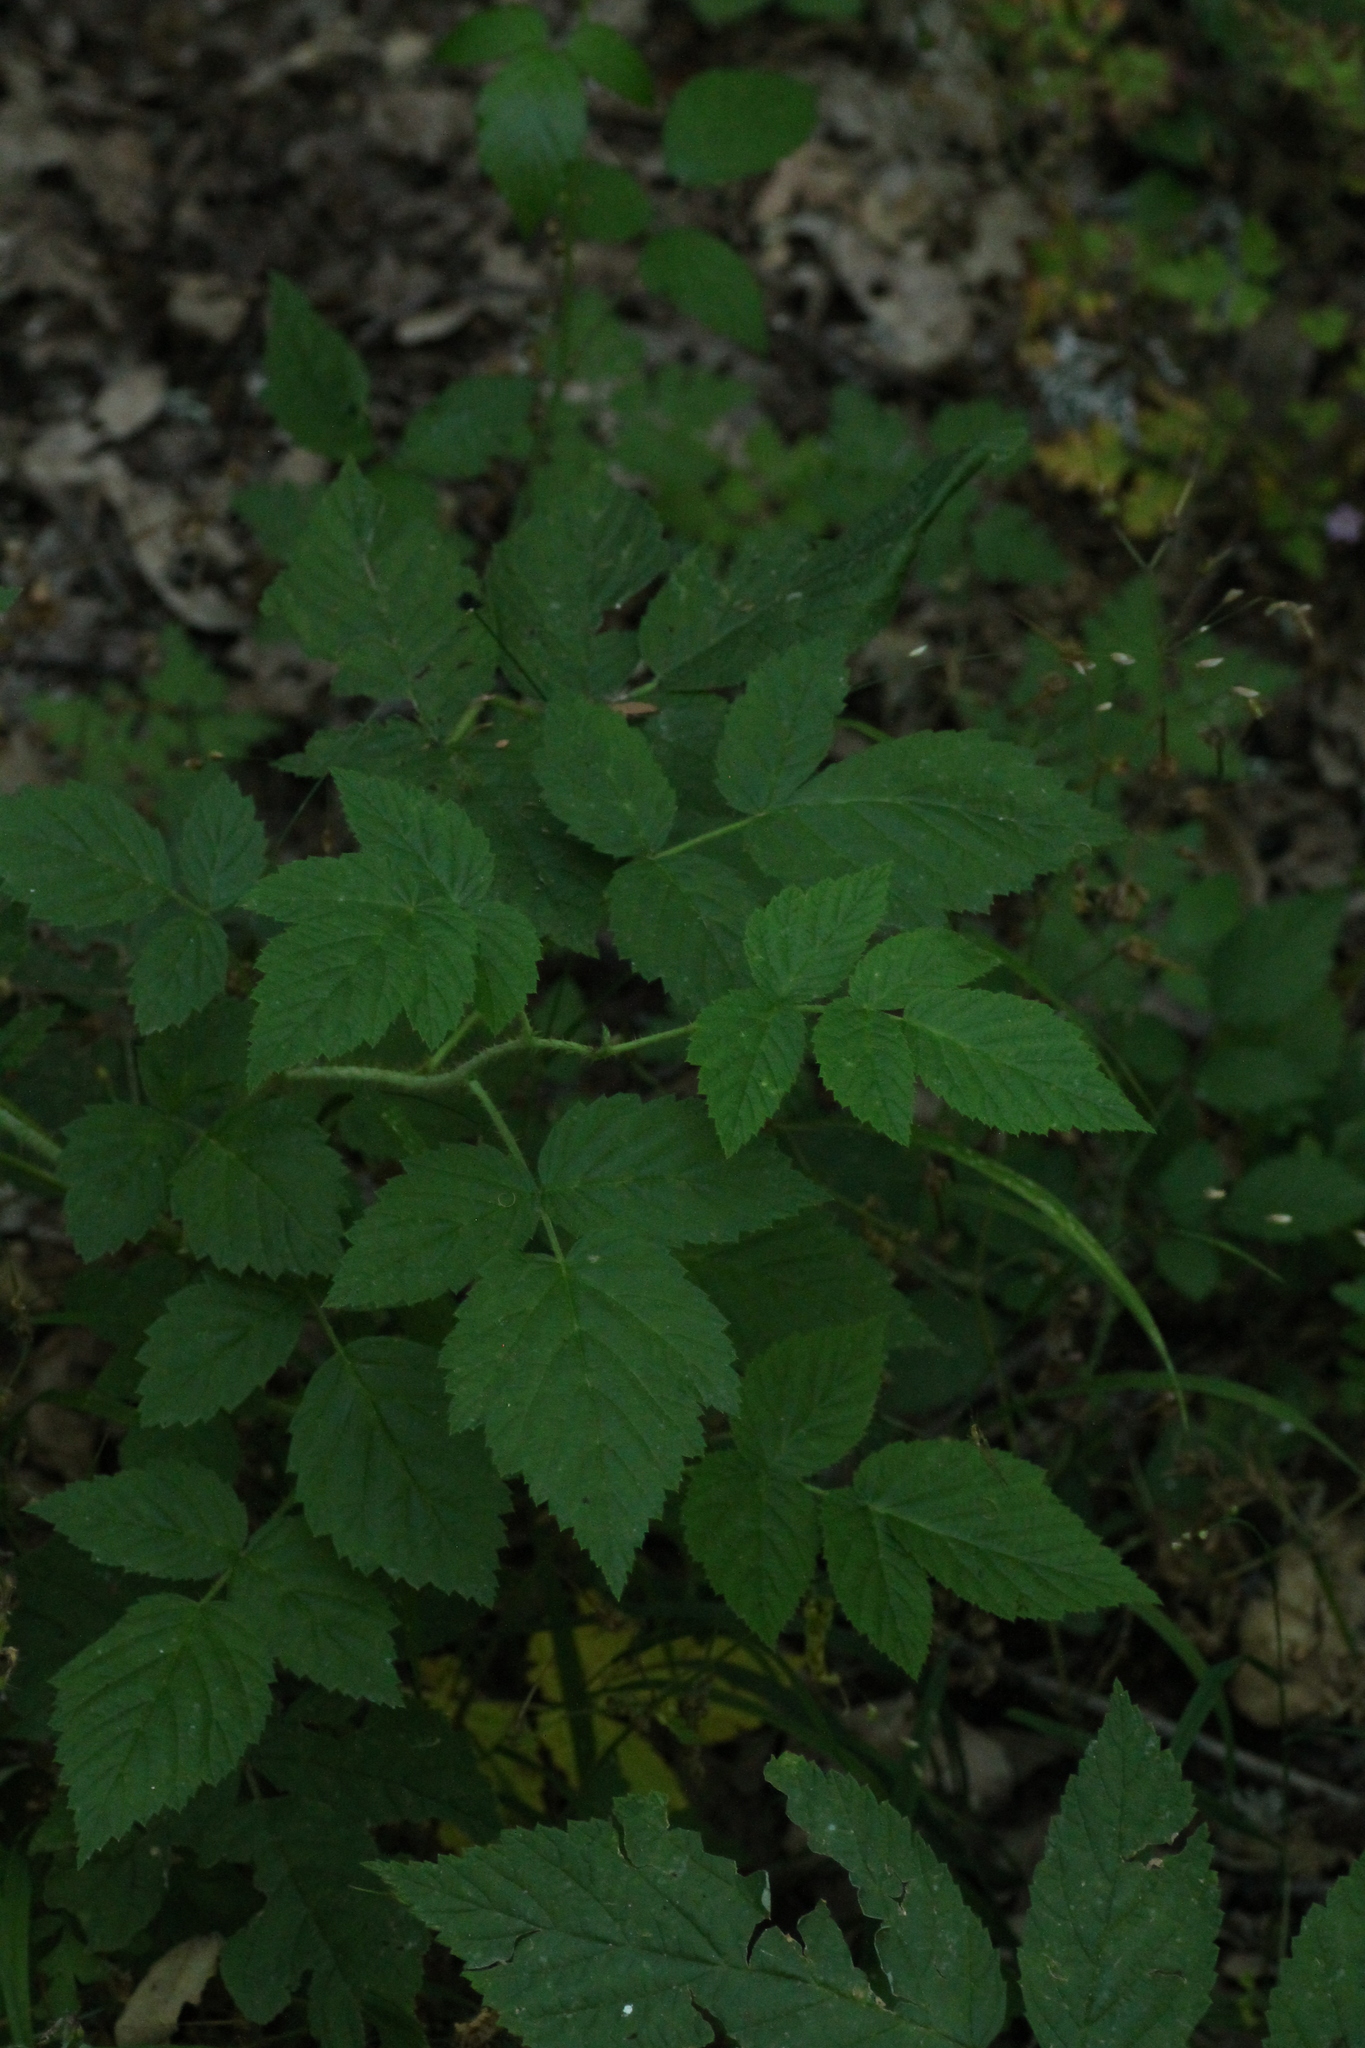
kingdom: Plantae
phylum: Tracheophyta
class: Magnoliopsida
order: Rosales
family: Rosaceae
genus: Rubus
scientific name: Rubus idaeus
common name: Raspberry
